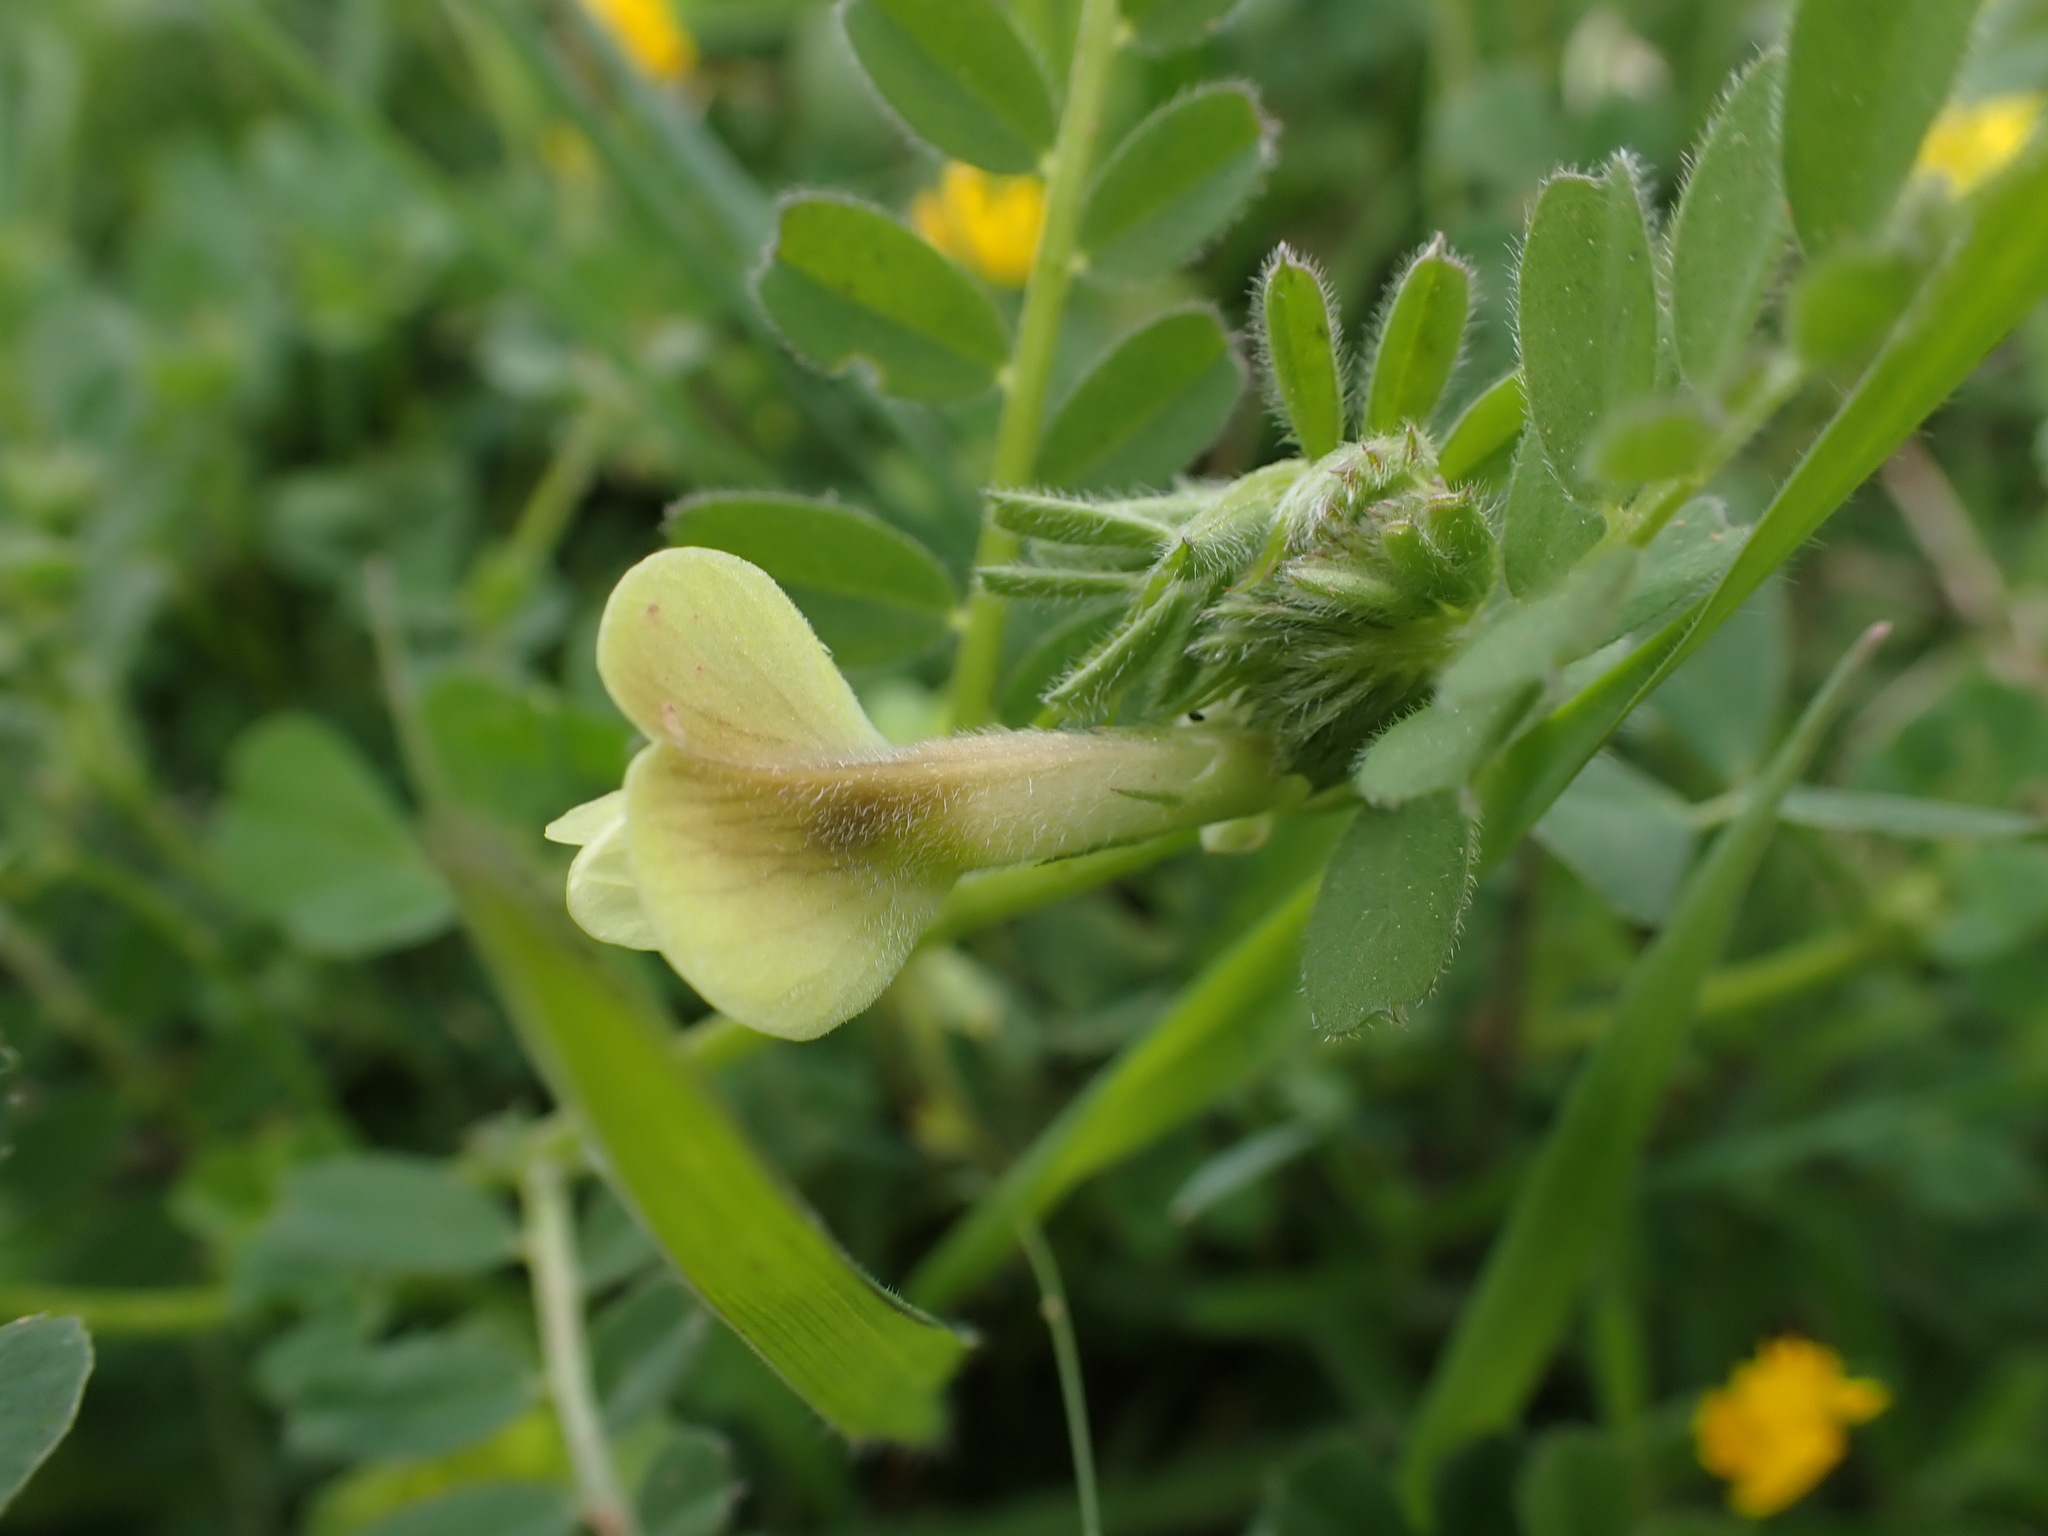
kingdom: Plantae
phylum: Tracheophyta
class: Magnoliopsida
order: Fabales
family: Fabaceae
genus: Vicia
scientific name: Vicia hybrida
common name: Hairy yellow vetch
